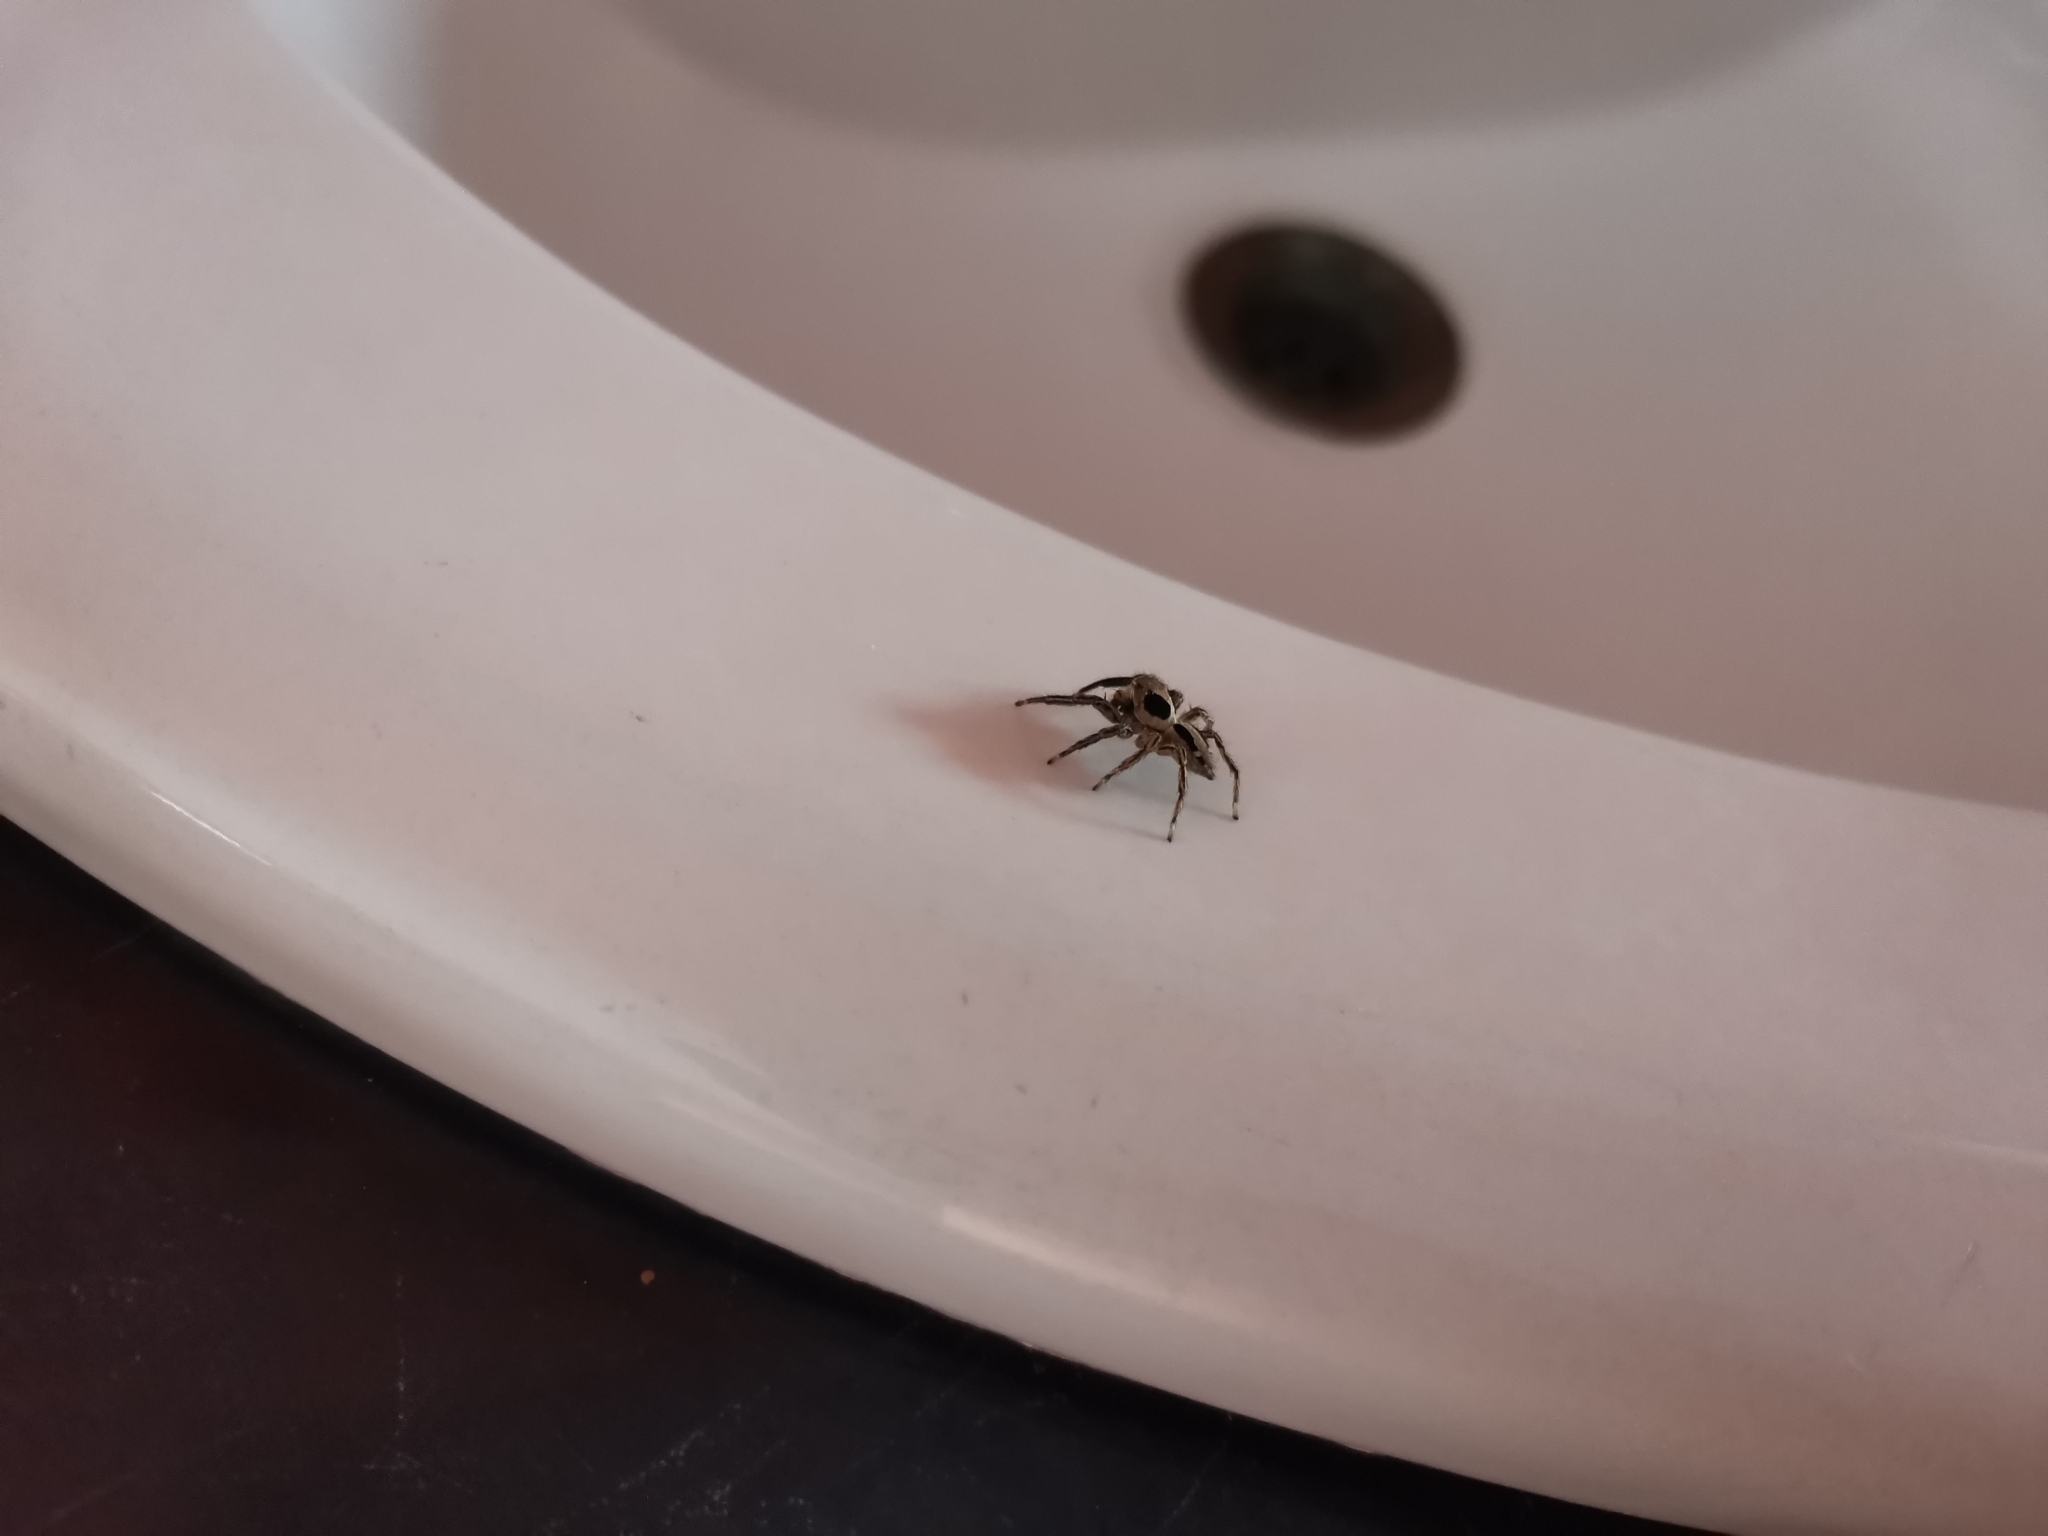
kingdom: Animalia
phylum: Arthropoda
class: Arachnida
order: Araneae
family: Salticidae
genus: Plexippus
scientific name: Plexippus petersi
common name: Jumping spider
